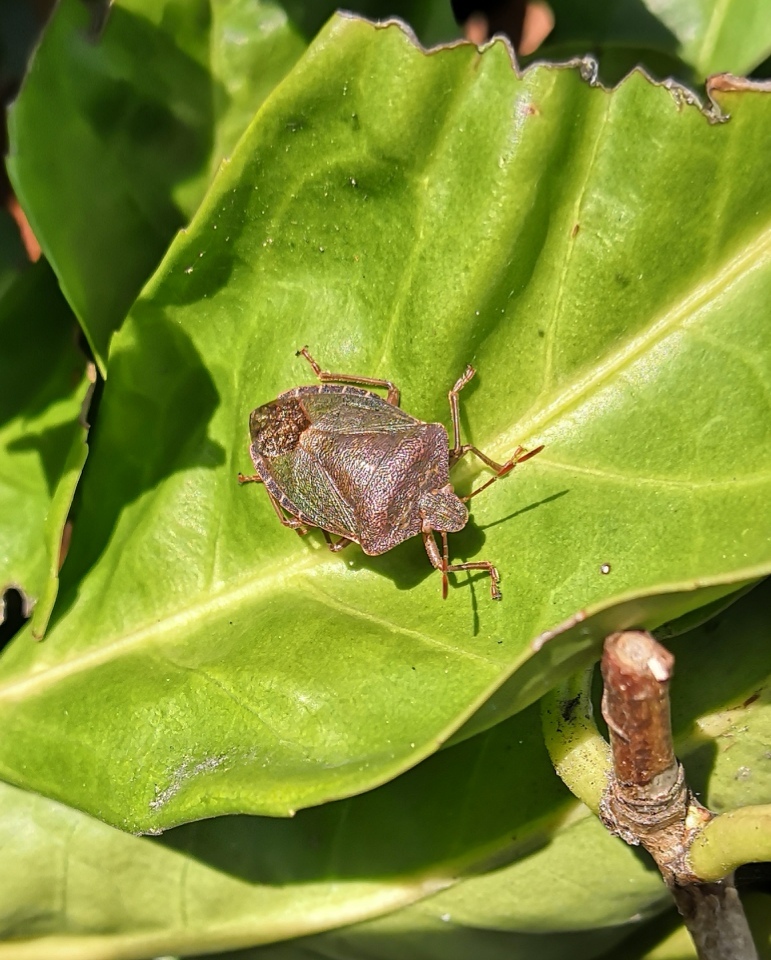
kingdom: Animalia
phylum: Arthropoda
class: Insecta
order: Hemiptera
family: Pentatomidae
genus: Palomena
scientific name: Palomena prasina
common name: Green shieldbug
